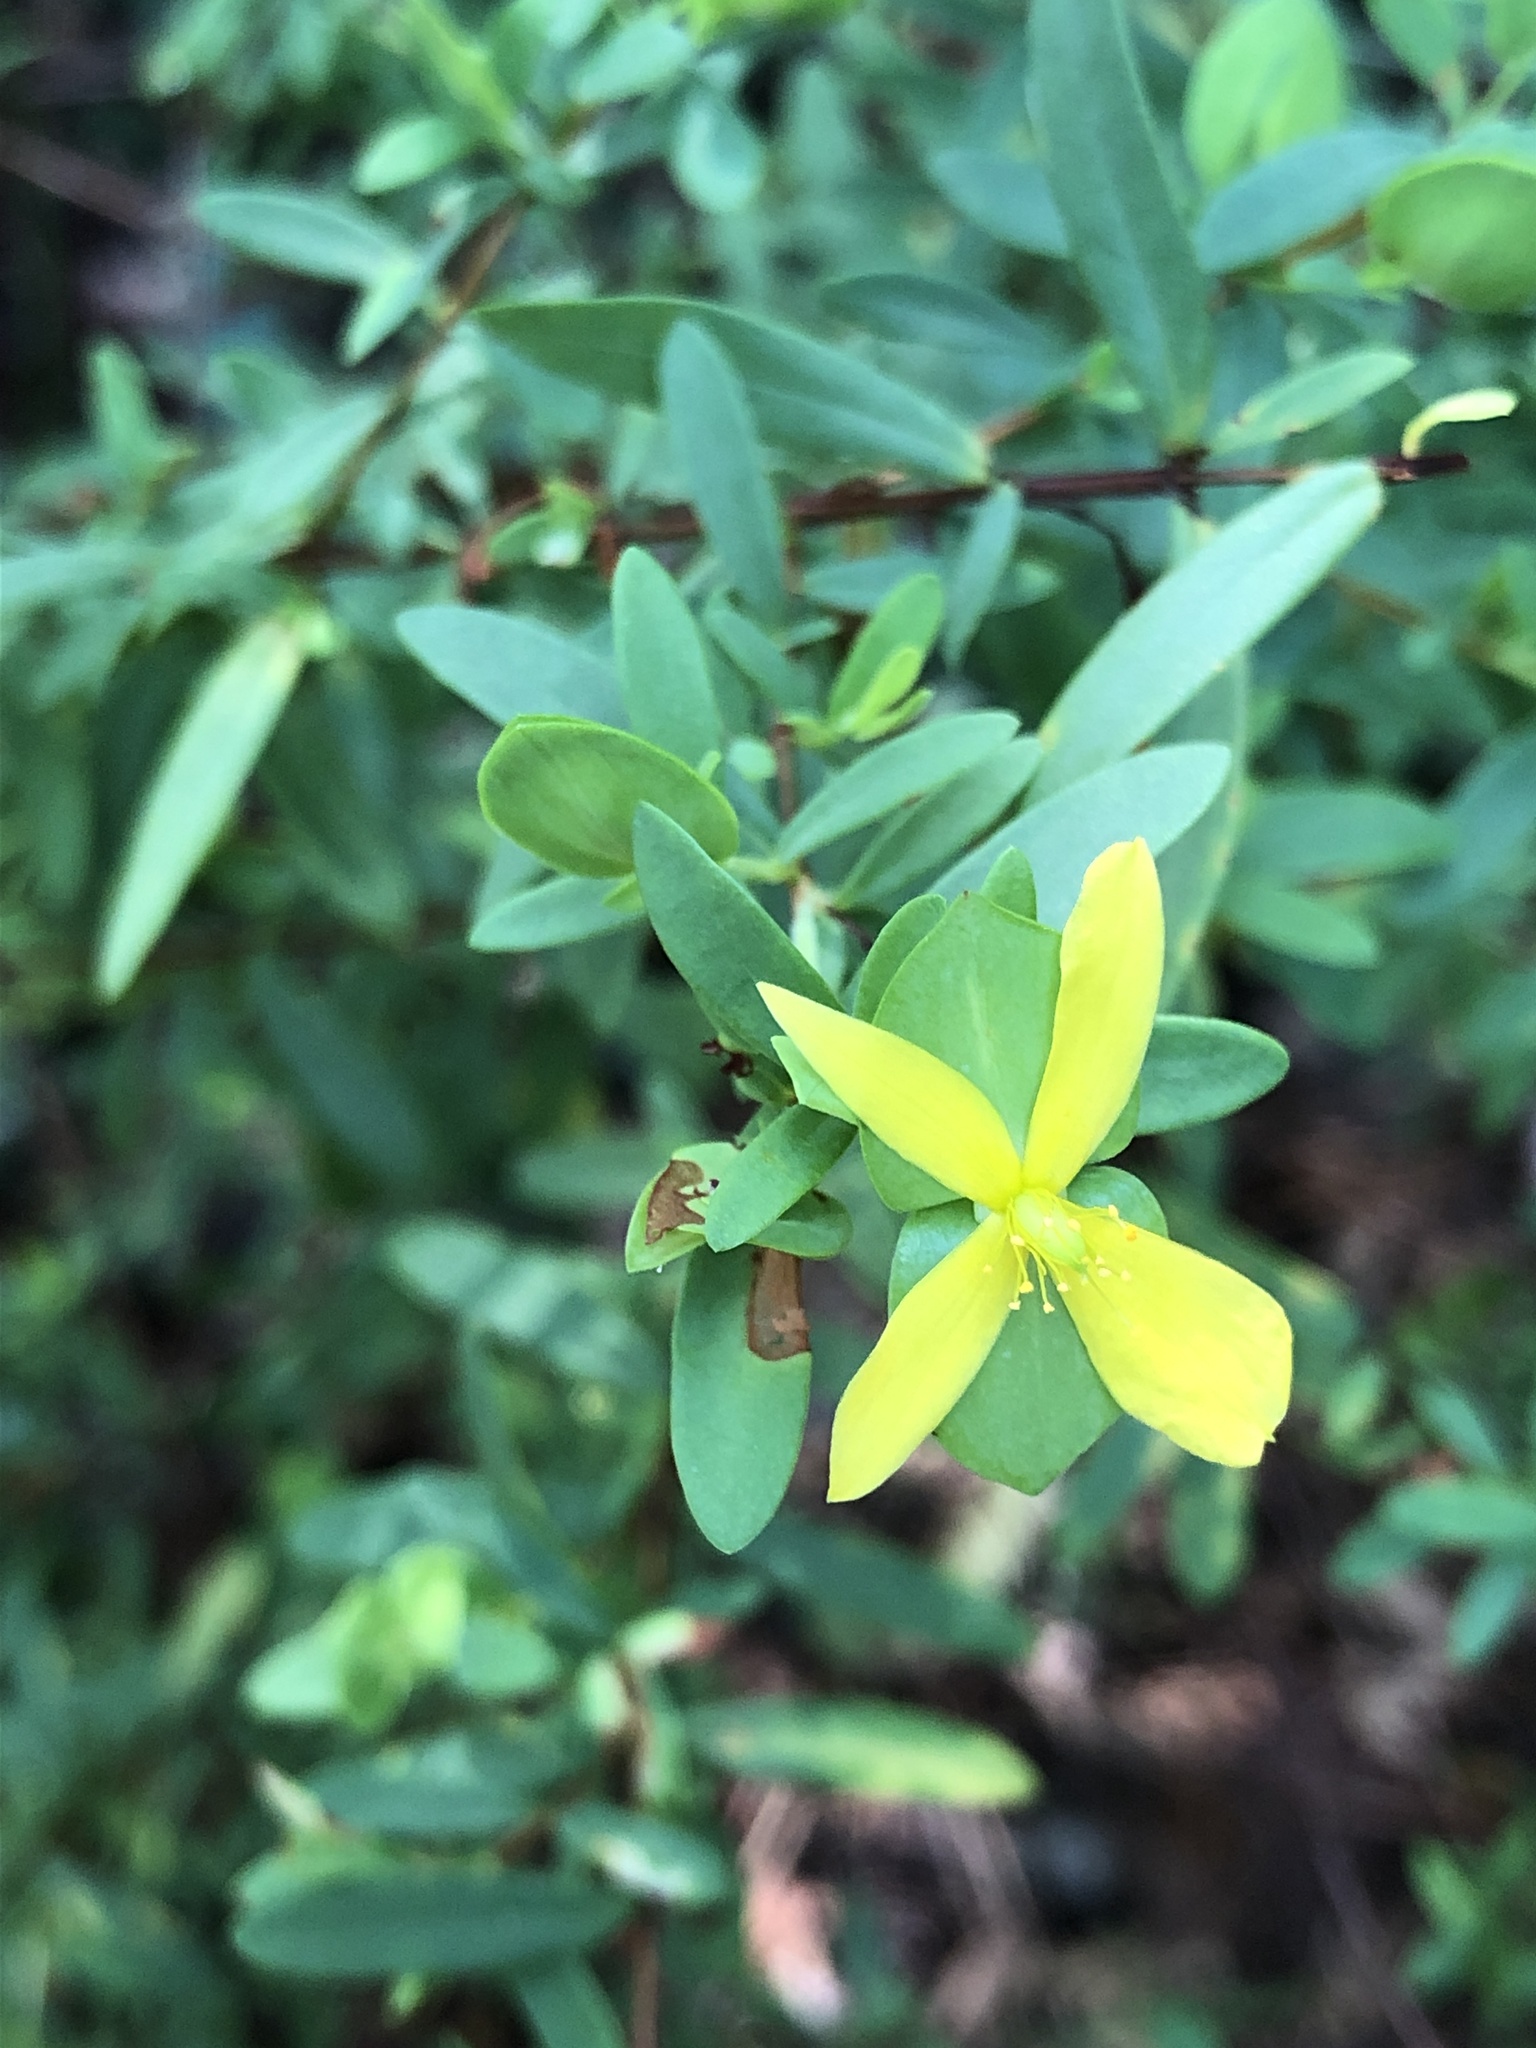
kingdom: Plantae
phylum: Tracheophyta
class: Magnoliopsida
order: Malpighiales
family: Hypericaceae
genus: Hypericum
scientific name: Hypericum hypericoides
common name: St. andrew's cross
